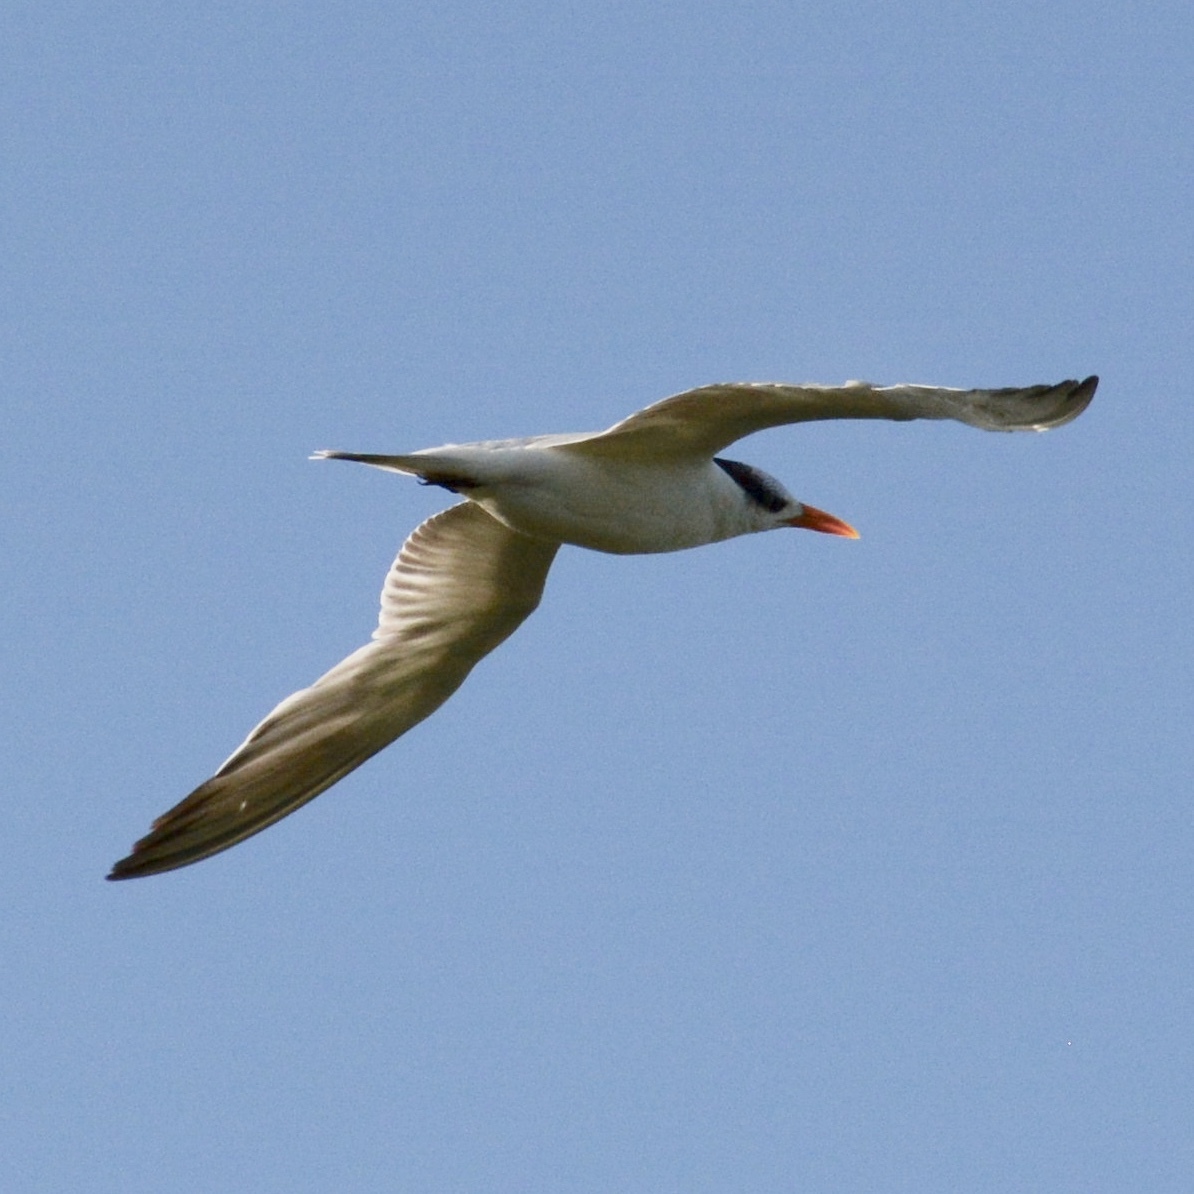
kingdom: Animalia
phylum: Chordata
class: Aves
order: Charadriiformes
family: Laridae
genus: Thalasseus
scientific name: Thalasseus maximus
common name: Royal tern
